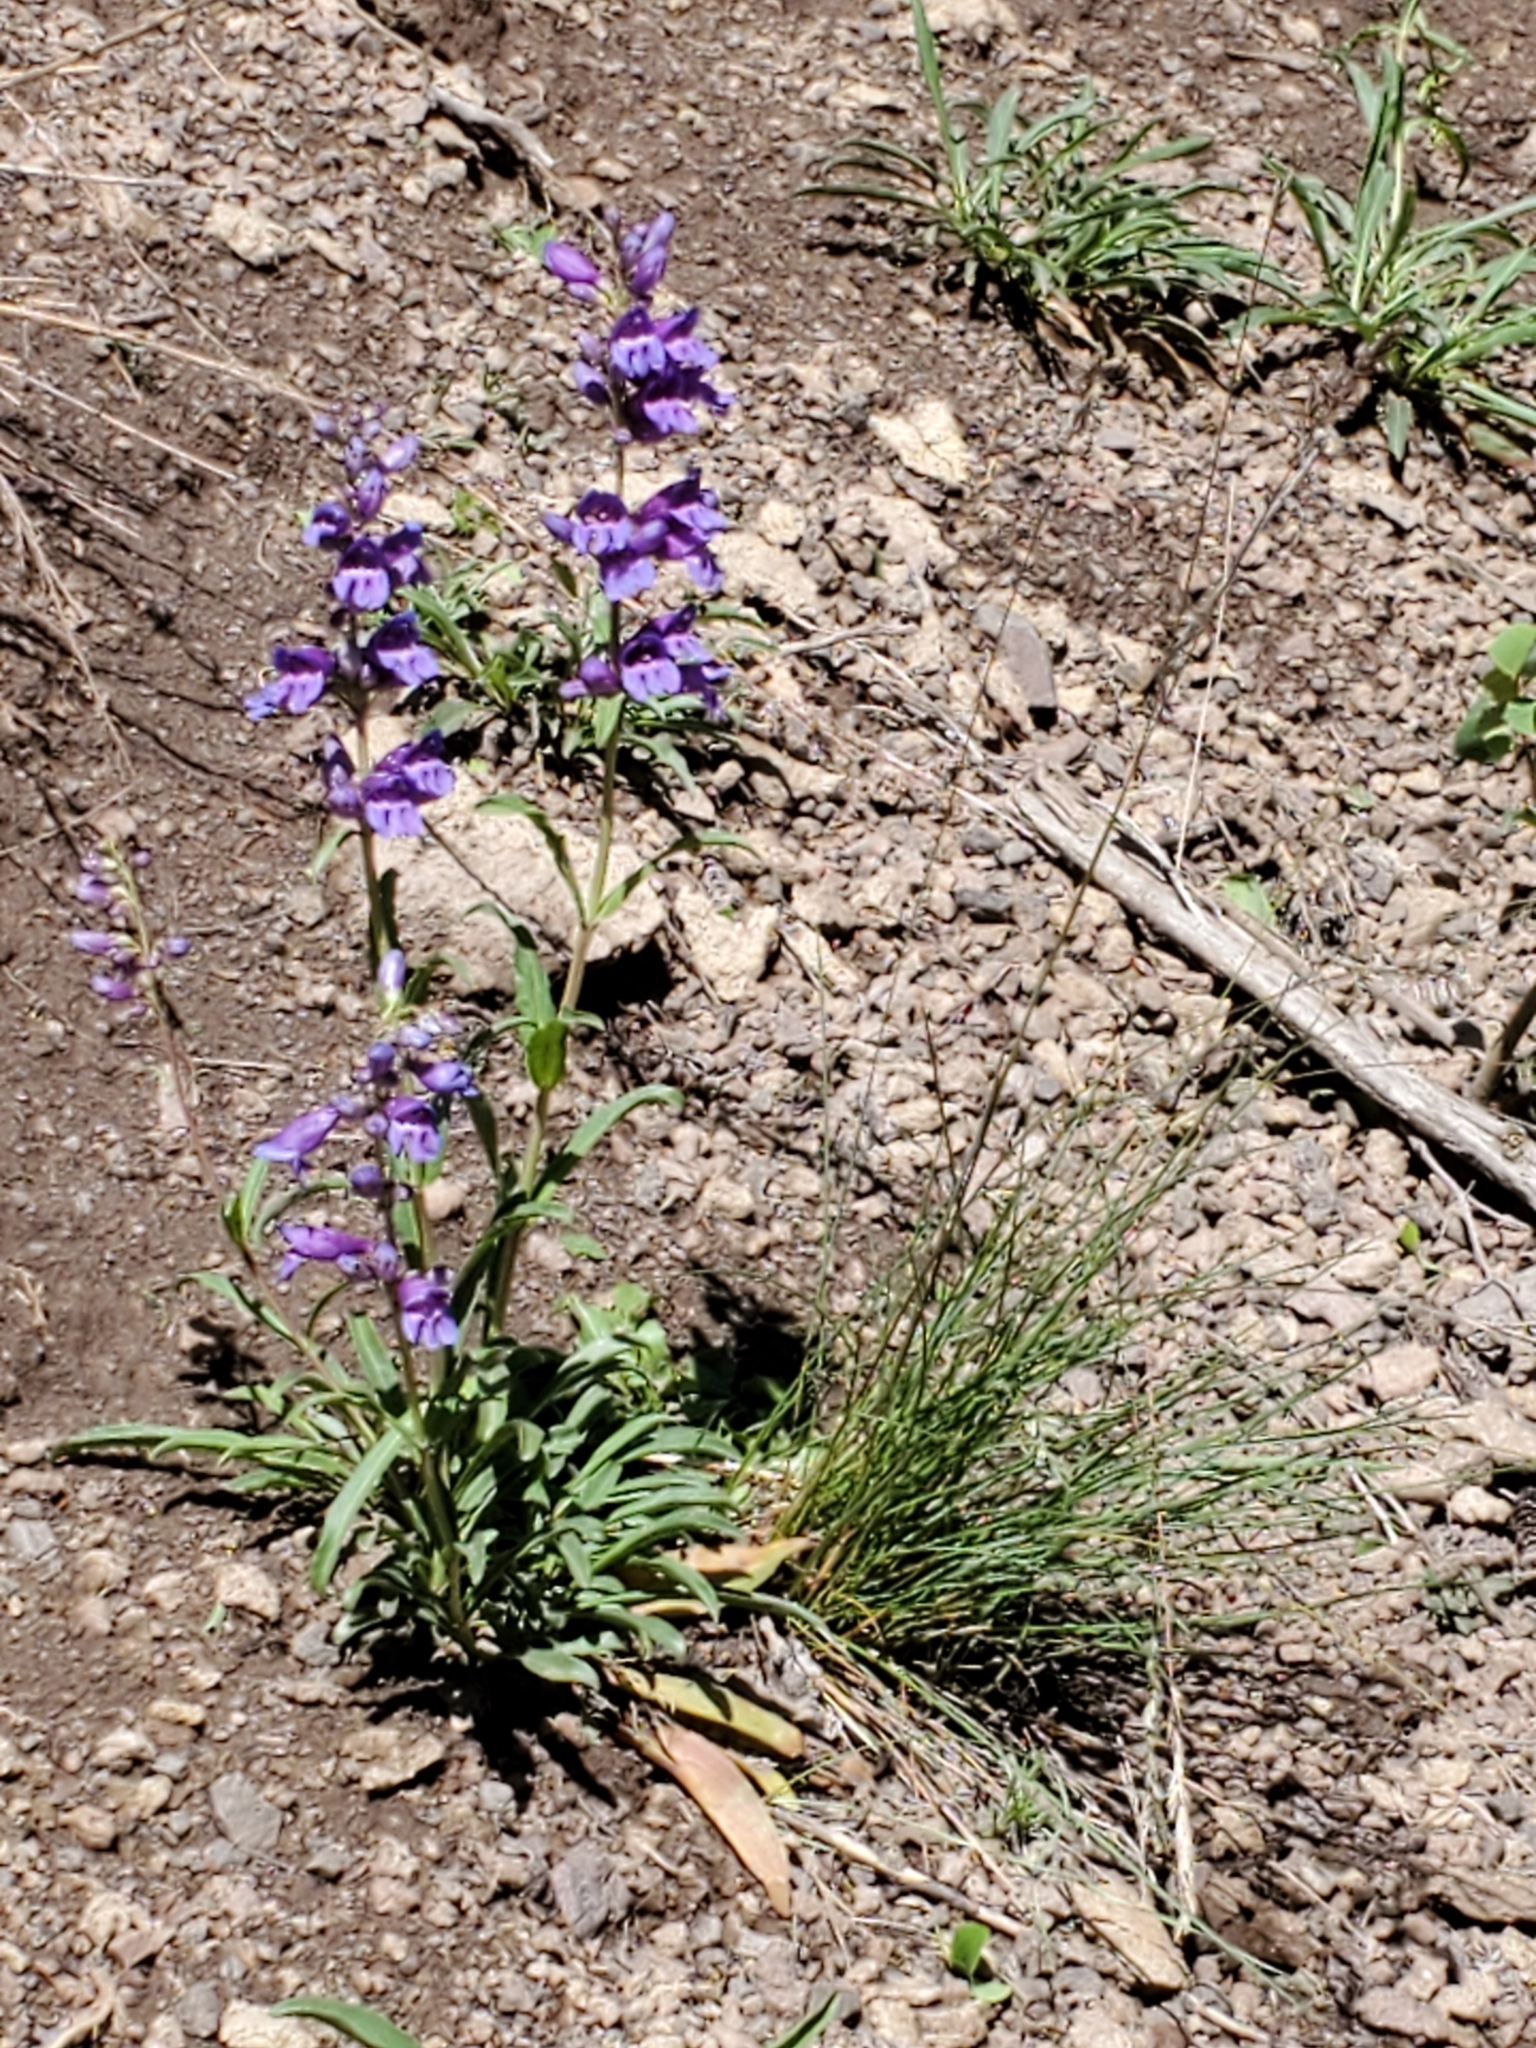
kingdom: Plantae
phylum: Tracheophyta
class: Magnoliopsida
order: Lamiales
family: Plantaginaceae
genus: Penstemon
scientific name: Penstemon strictus
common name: Rocky mountain penstemon
